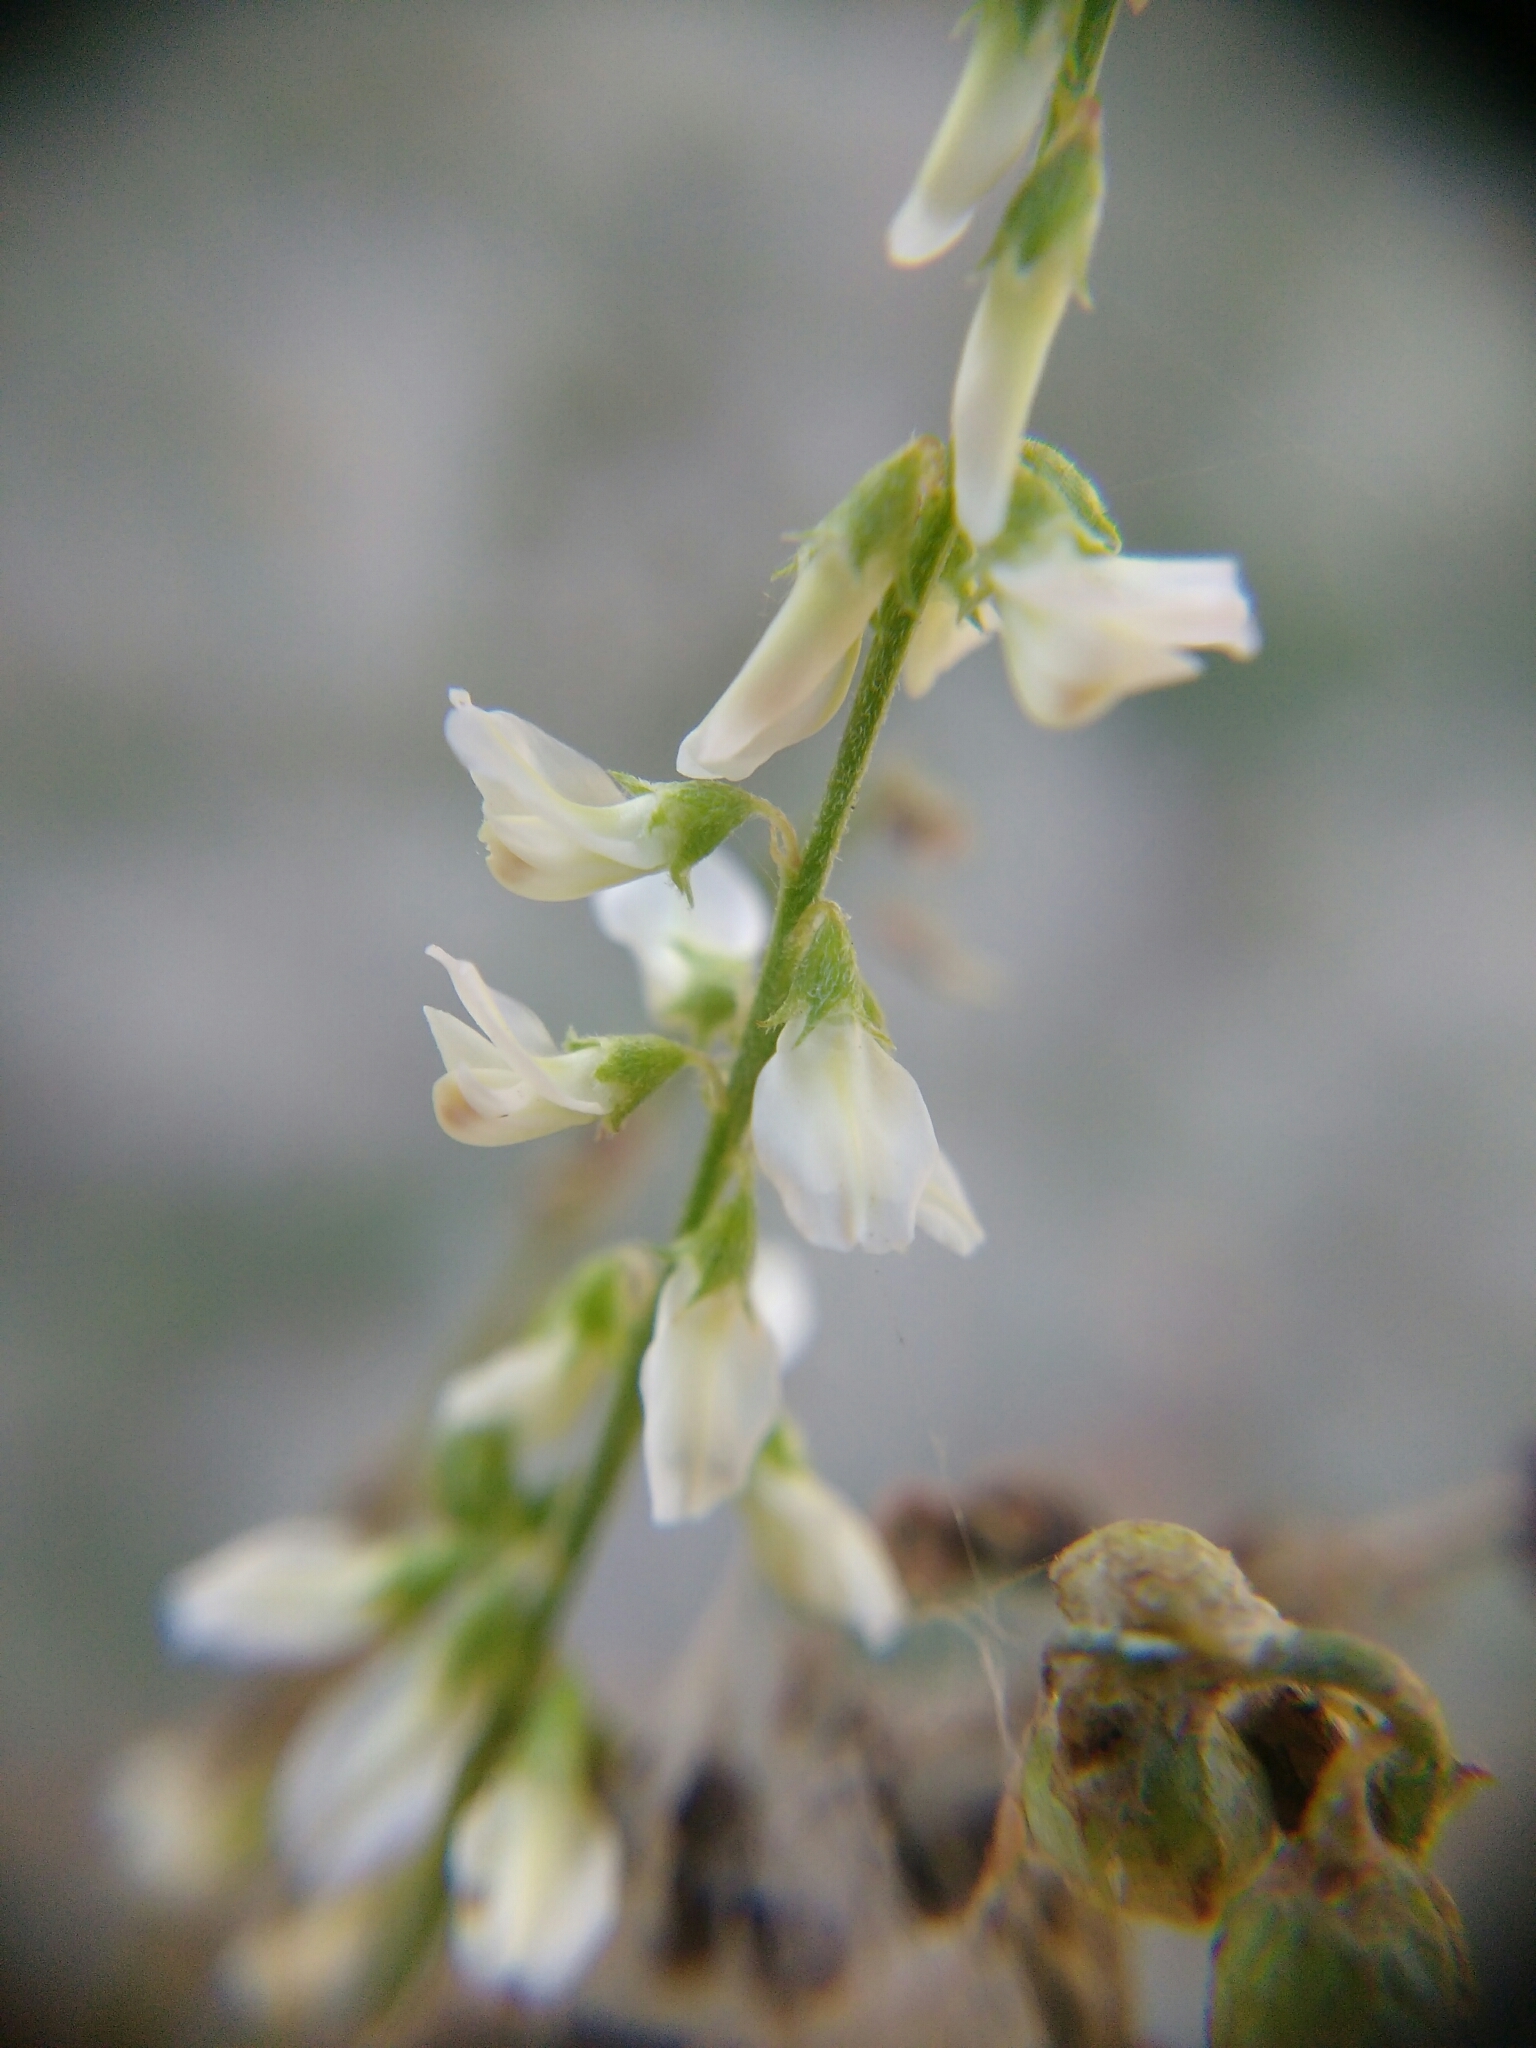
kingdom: Plantae
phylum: Tracheophyta
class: Magnoliopsida
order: Fabales
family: Fabaceae
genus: Melilotus
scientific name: Melilotus albus
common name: White melilot
